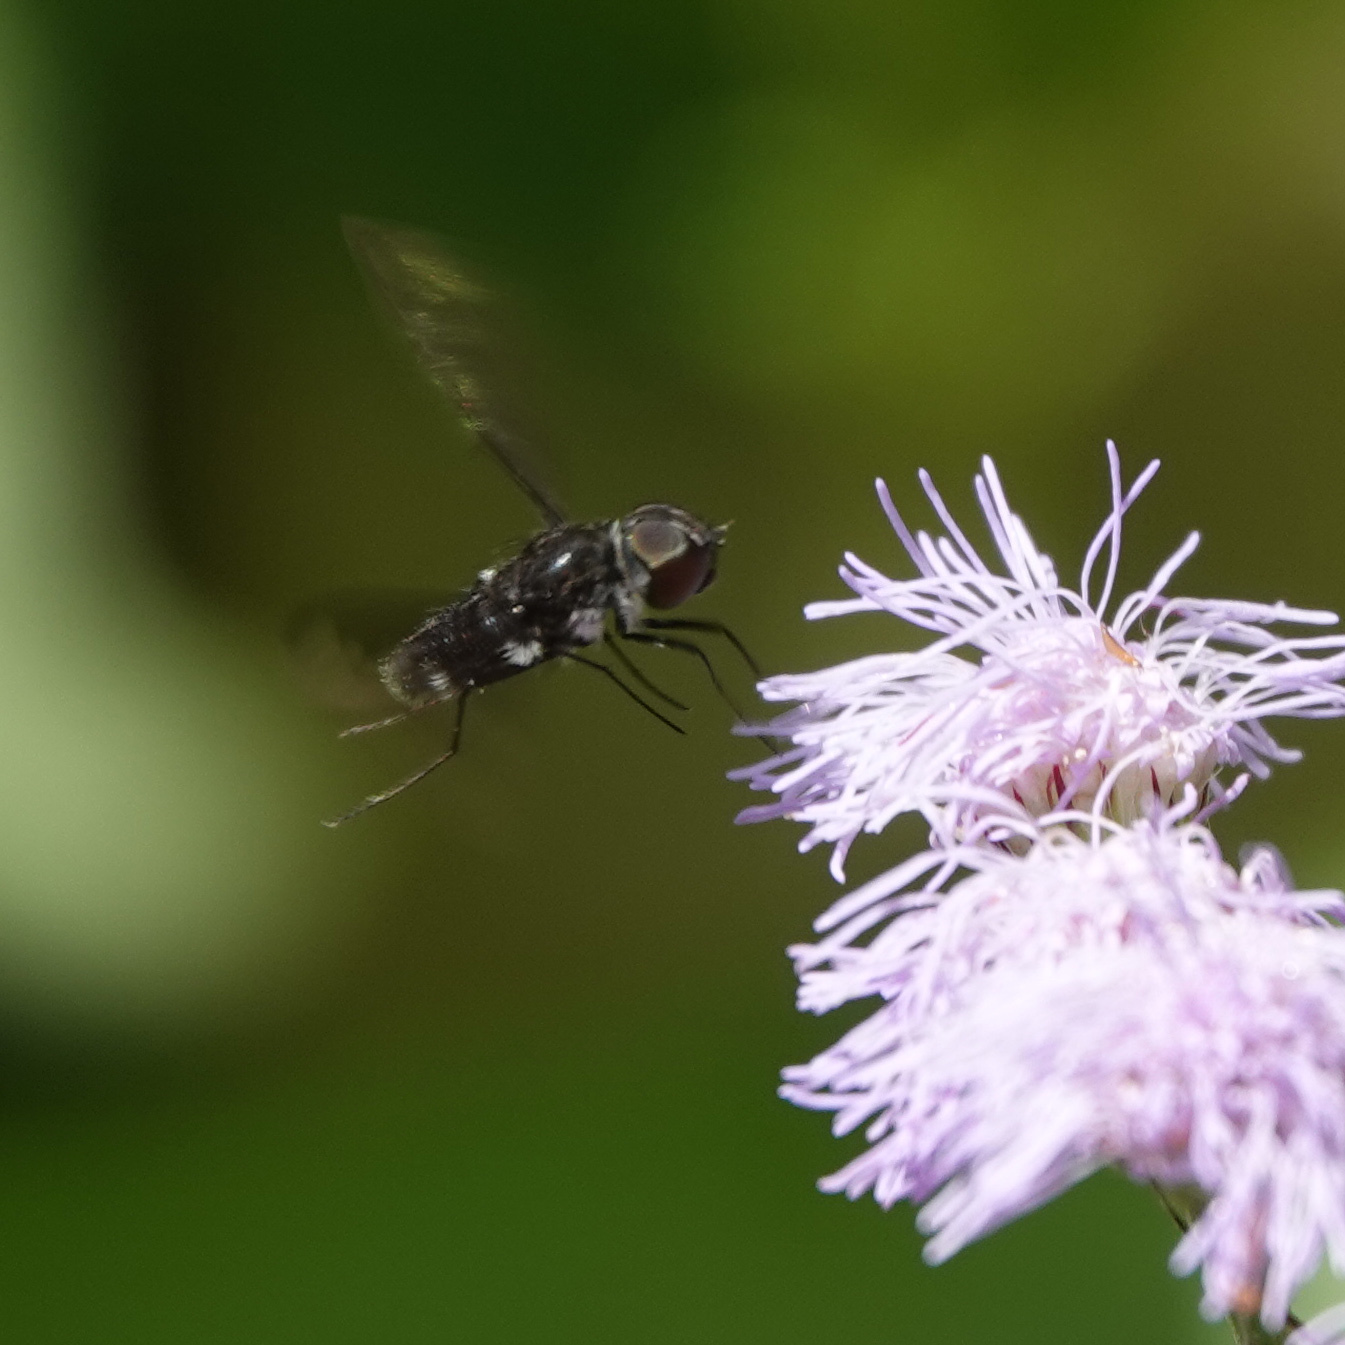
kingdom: Animalia
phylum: Arthropoda
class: Insecta
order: Diptera
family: Bombyliidae
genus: Anthrax
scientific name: Anthrax argyropygus
